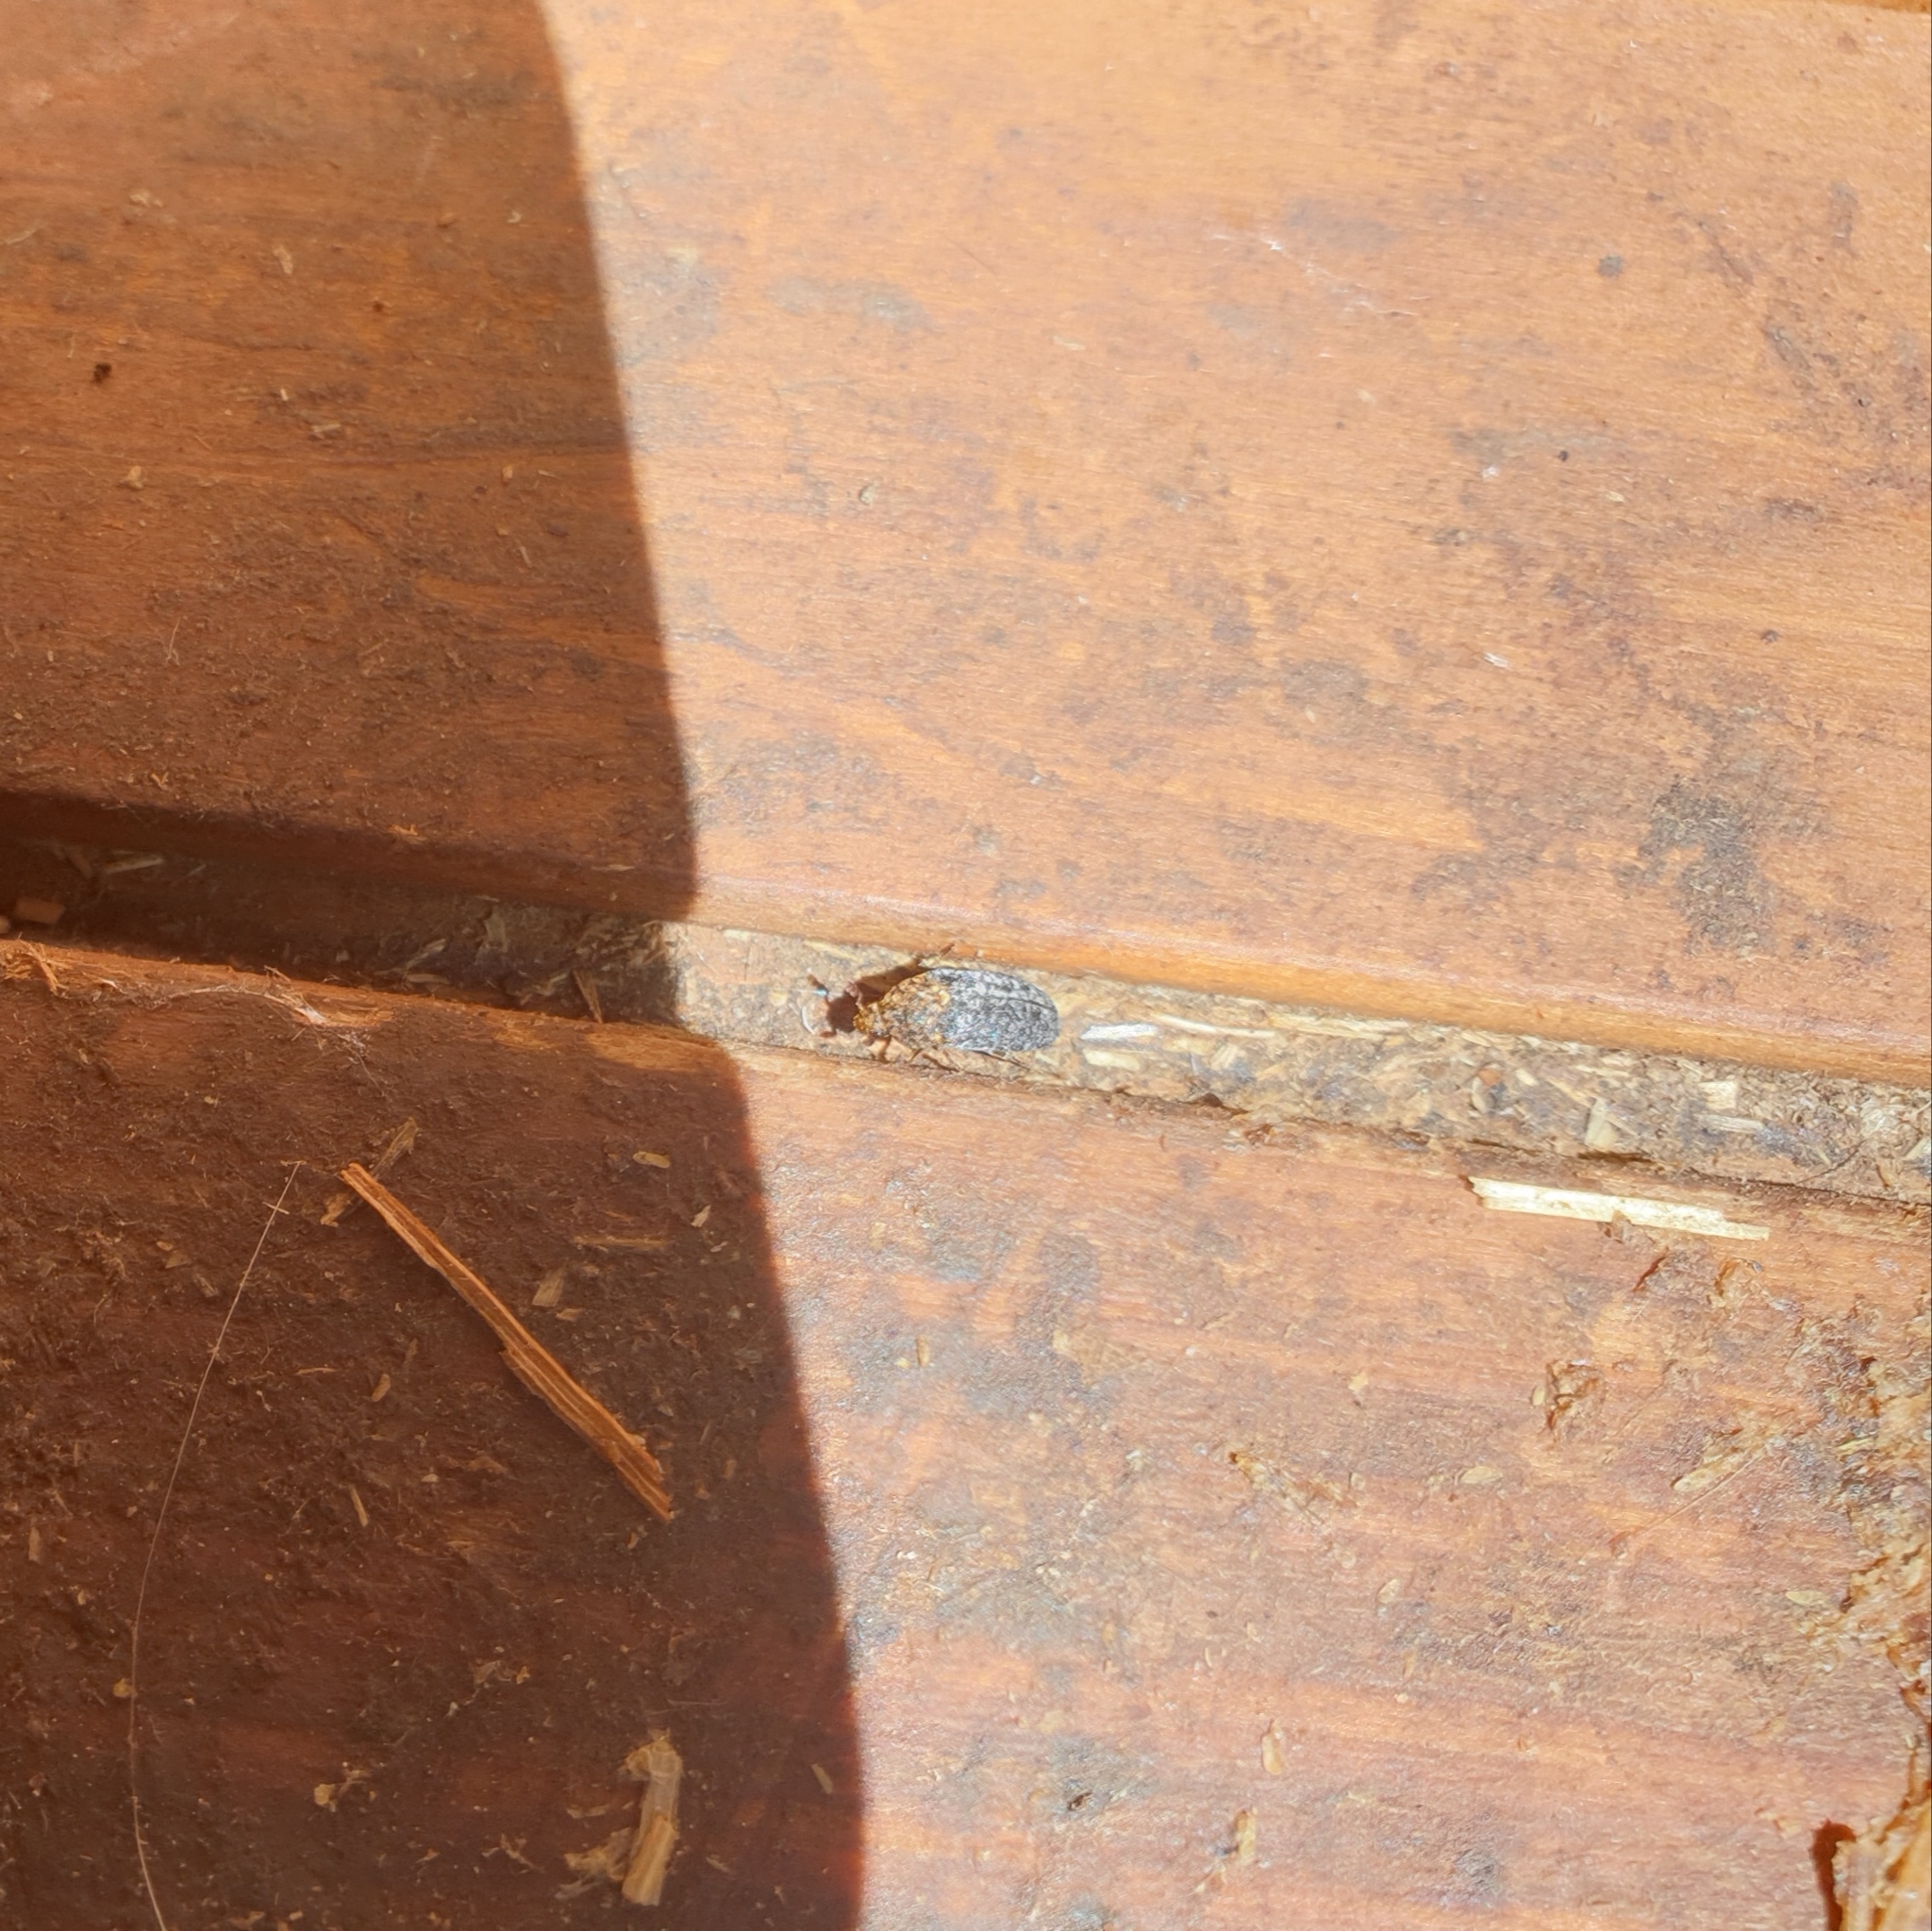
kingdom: Animalia
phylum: Arthropoda
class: Insecta
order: Coleoptera
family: Dermestidae
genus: Dermestes
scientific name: Dermestes undulatus
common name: Wavy carpet beetle
